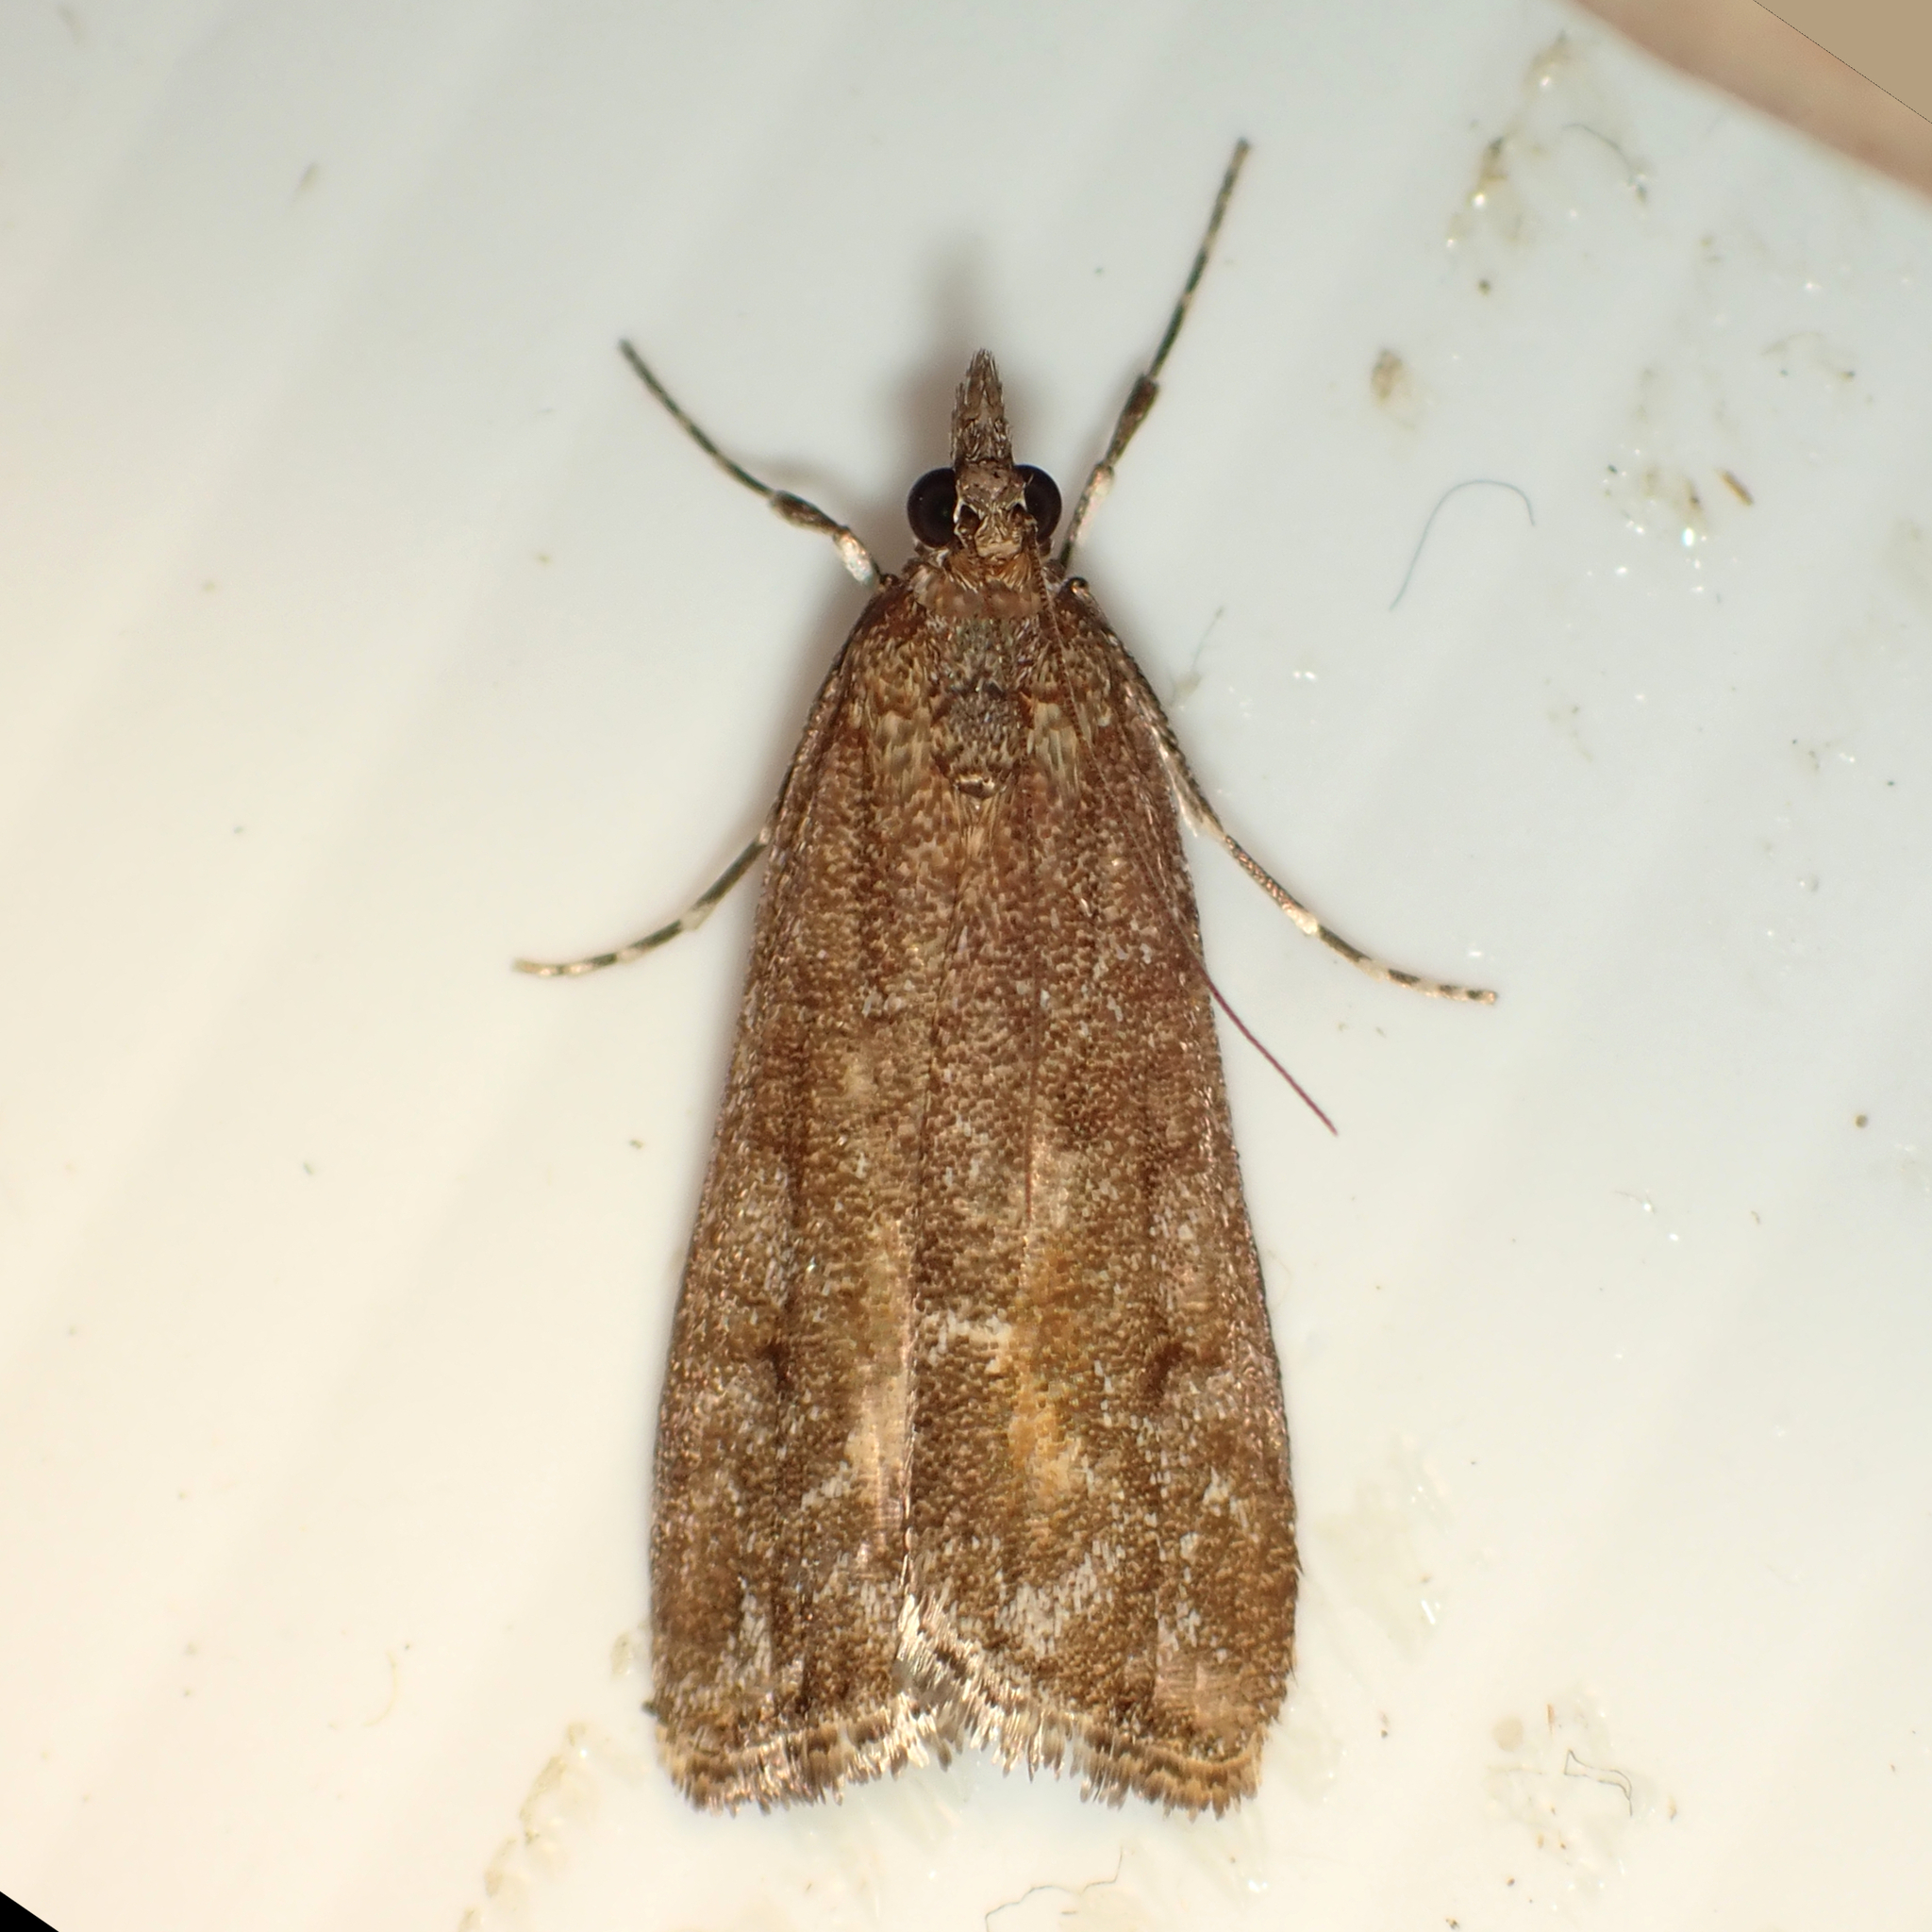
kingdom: Animalia
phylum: Arthropoda
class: Insecta
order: Lepidoptera
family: Crambidae
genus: Eudonia
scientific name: Eudonia submarginalis
